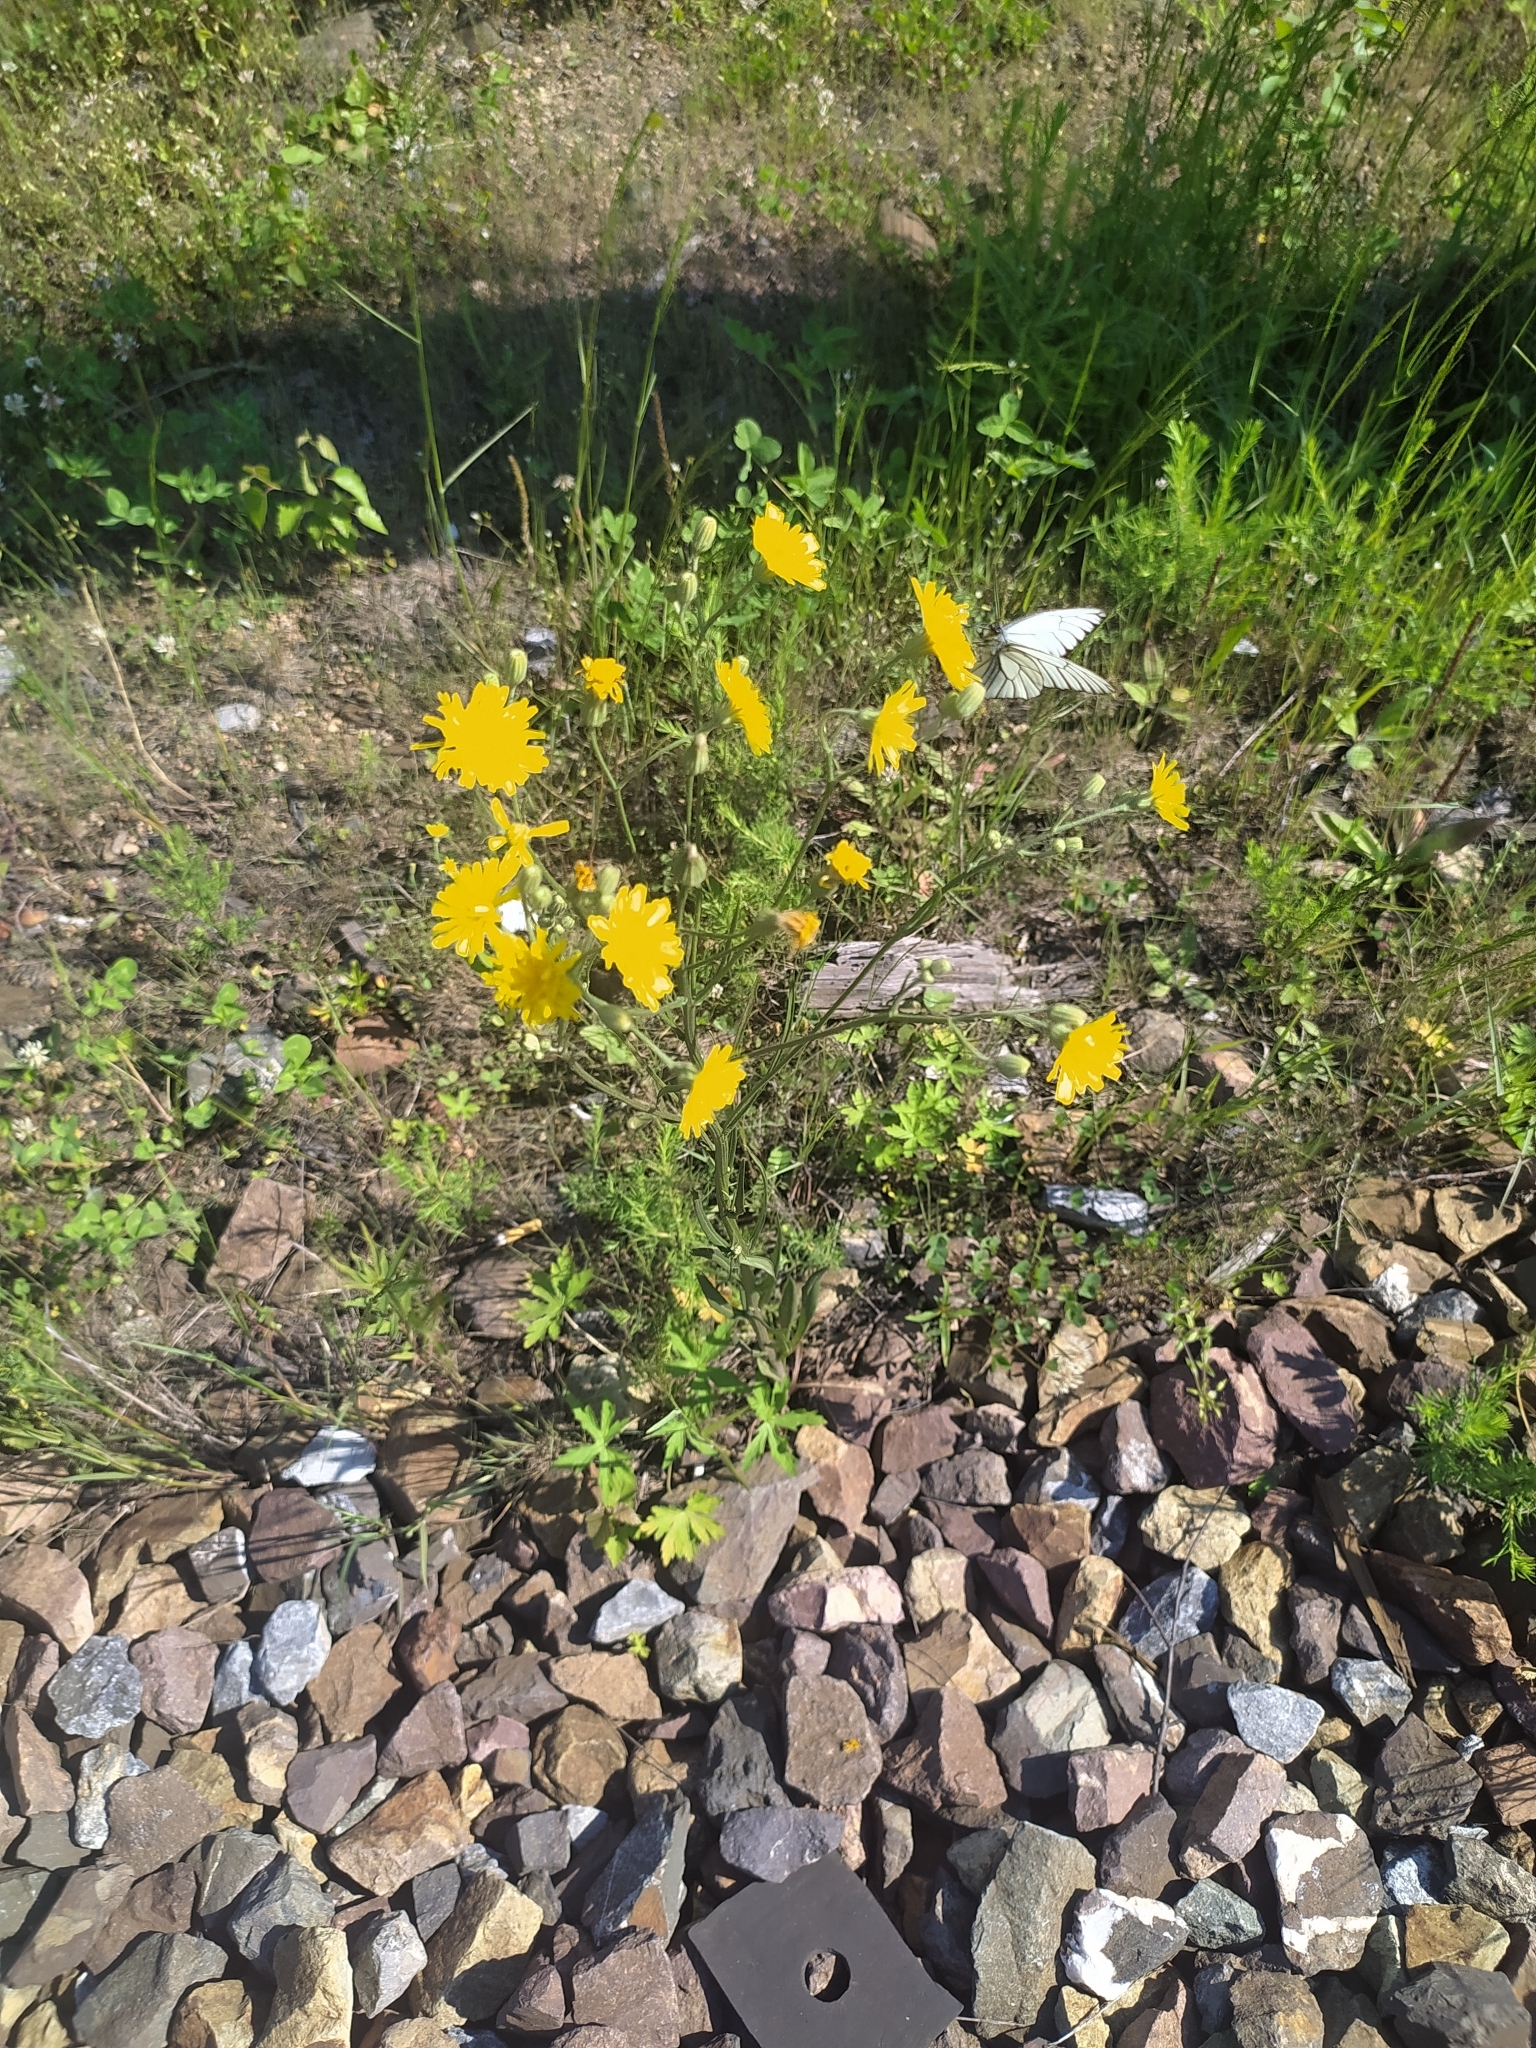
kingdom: Plantae
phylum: Tracheophyta
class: Magnoliopsida
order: Asterales
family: Asteraceae
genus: Crepis
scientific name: Crepis tectorum
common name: Narrow-leaved hawk's-beard
